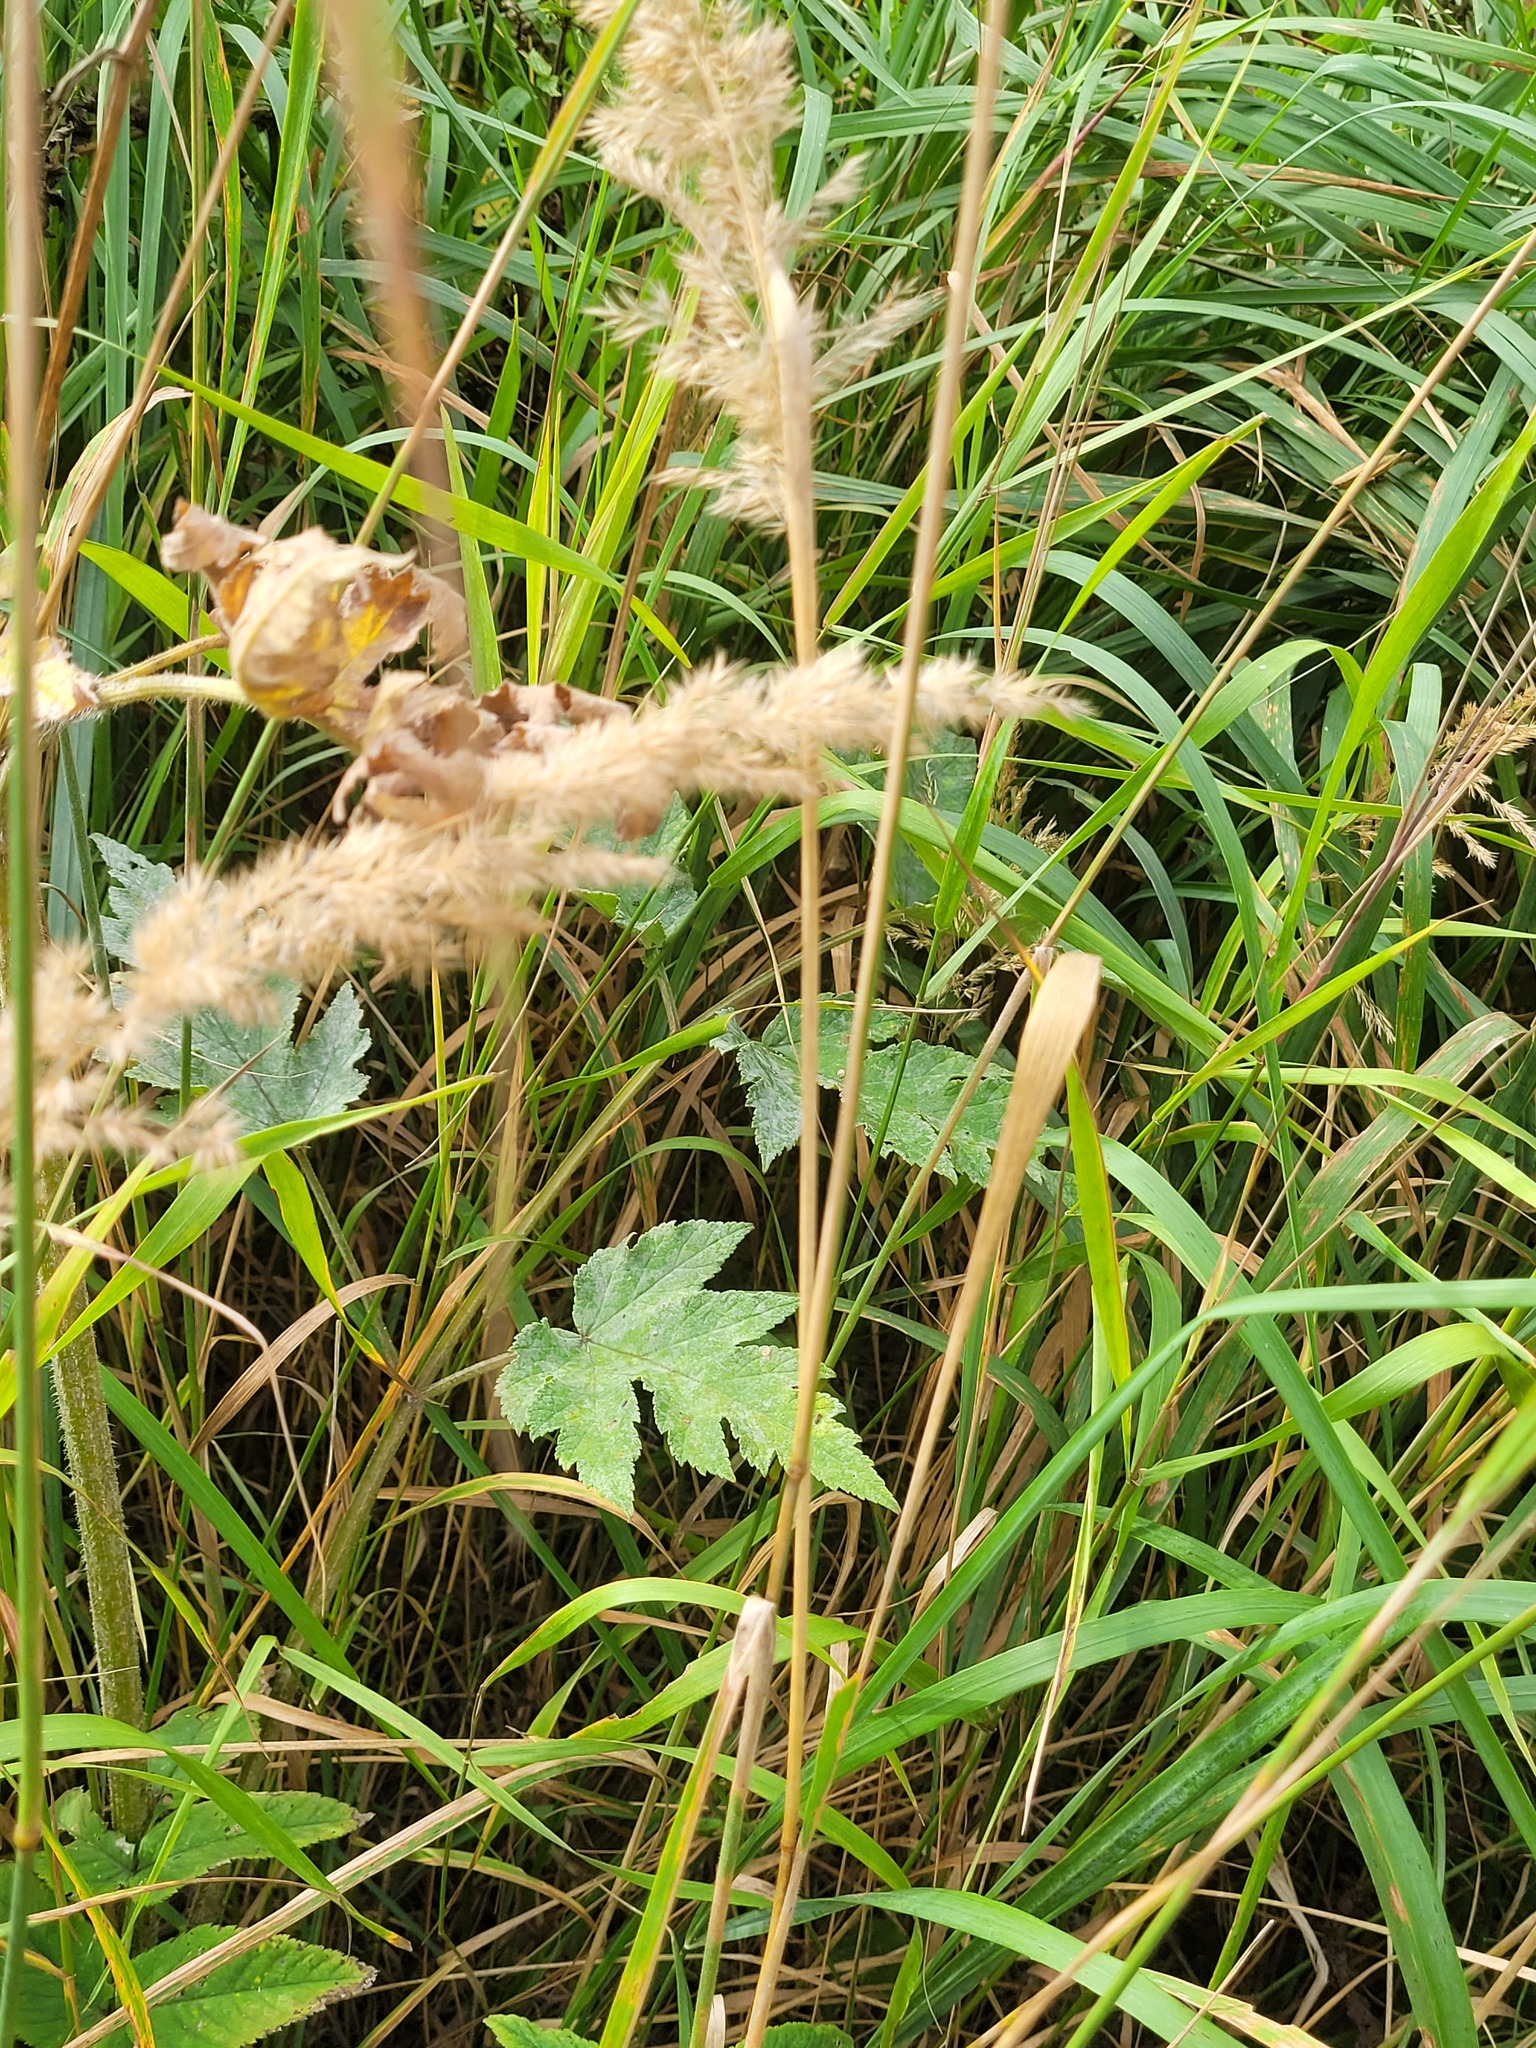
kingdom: Plantae
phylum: Tracheophyta
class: Magnoliopsida
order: Apiales
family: Apiaceae
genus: Heracleum
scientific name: Heracleum sphondylium
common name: Hogweed
